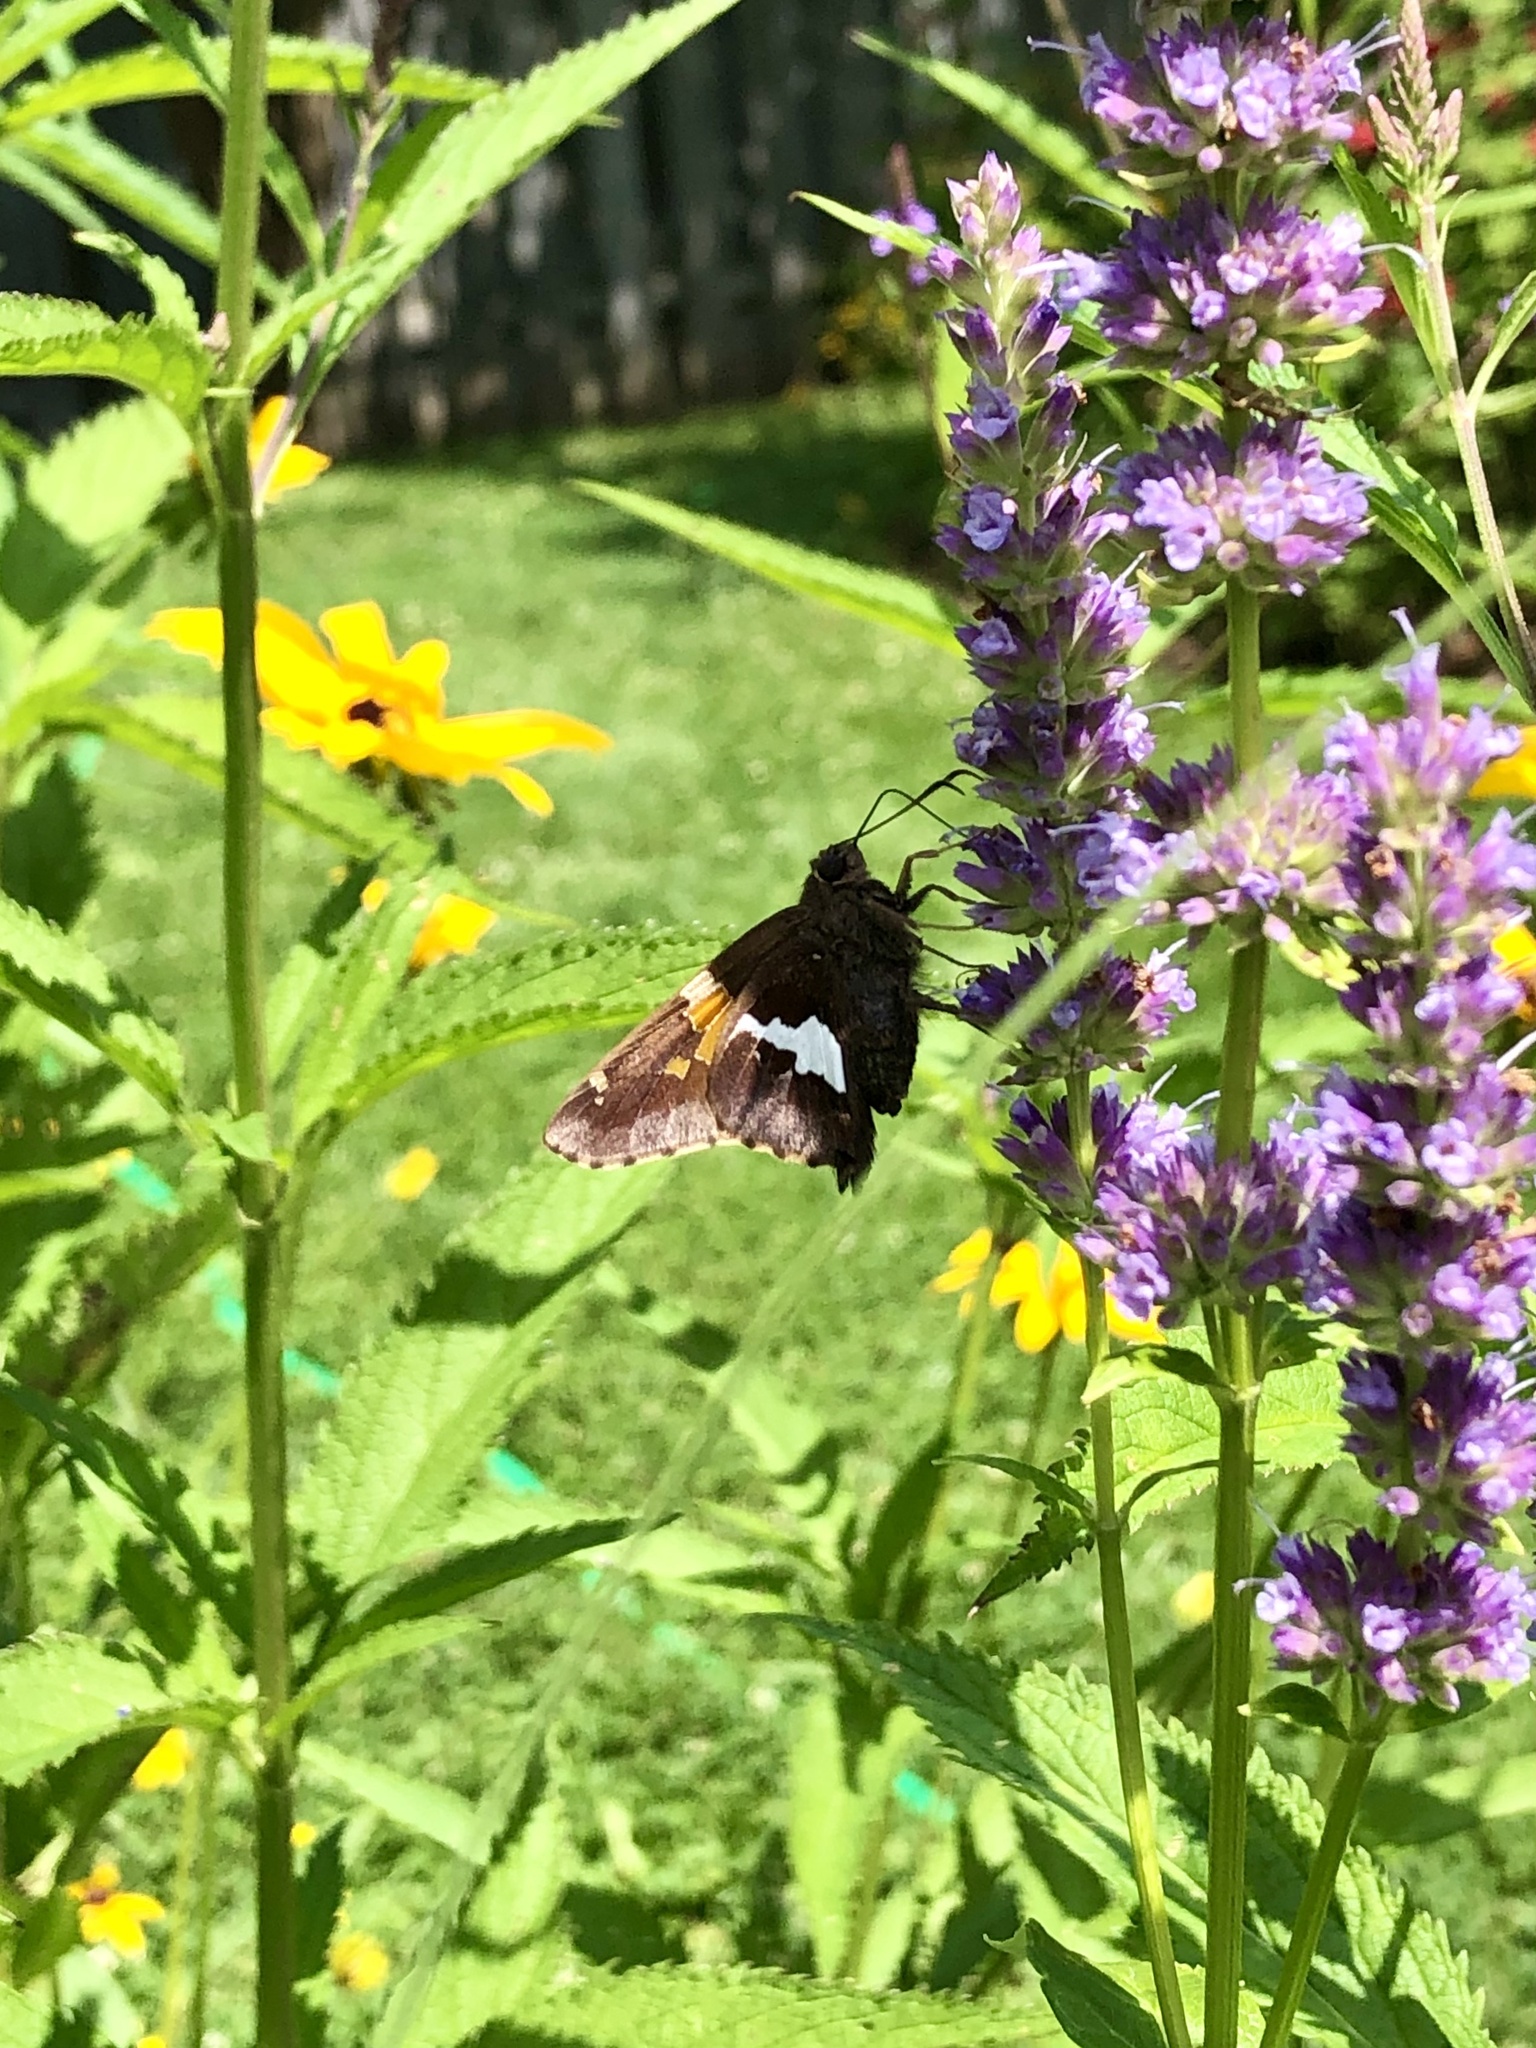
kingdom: Animalia
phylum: Arthropoda
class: Insecta
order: Lepidoptera
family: Hesperiidae
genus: Epargyreus
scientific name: Epargyreus clarus
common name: Silver-spotted skipper
